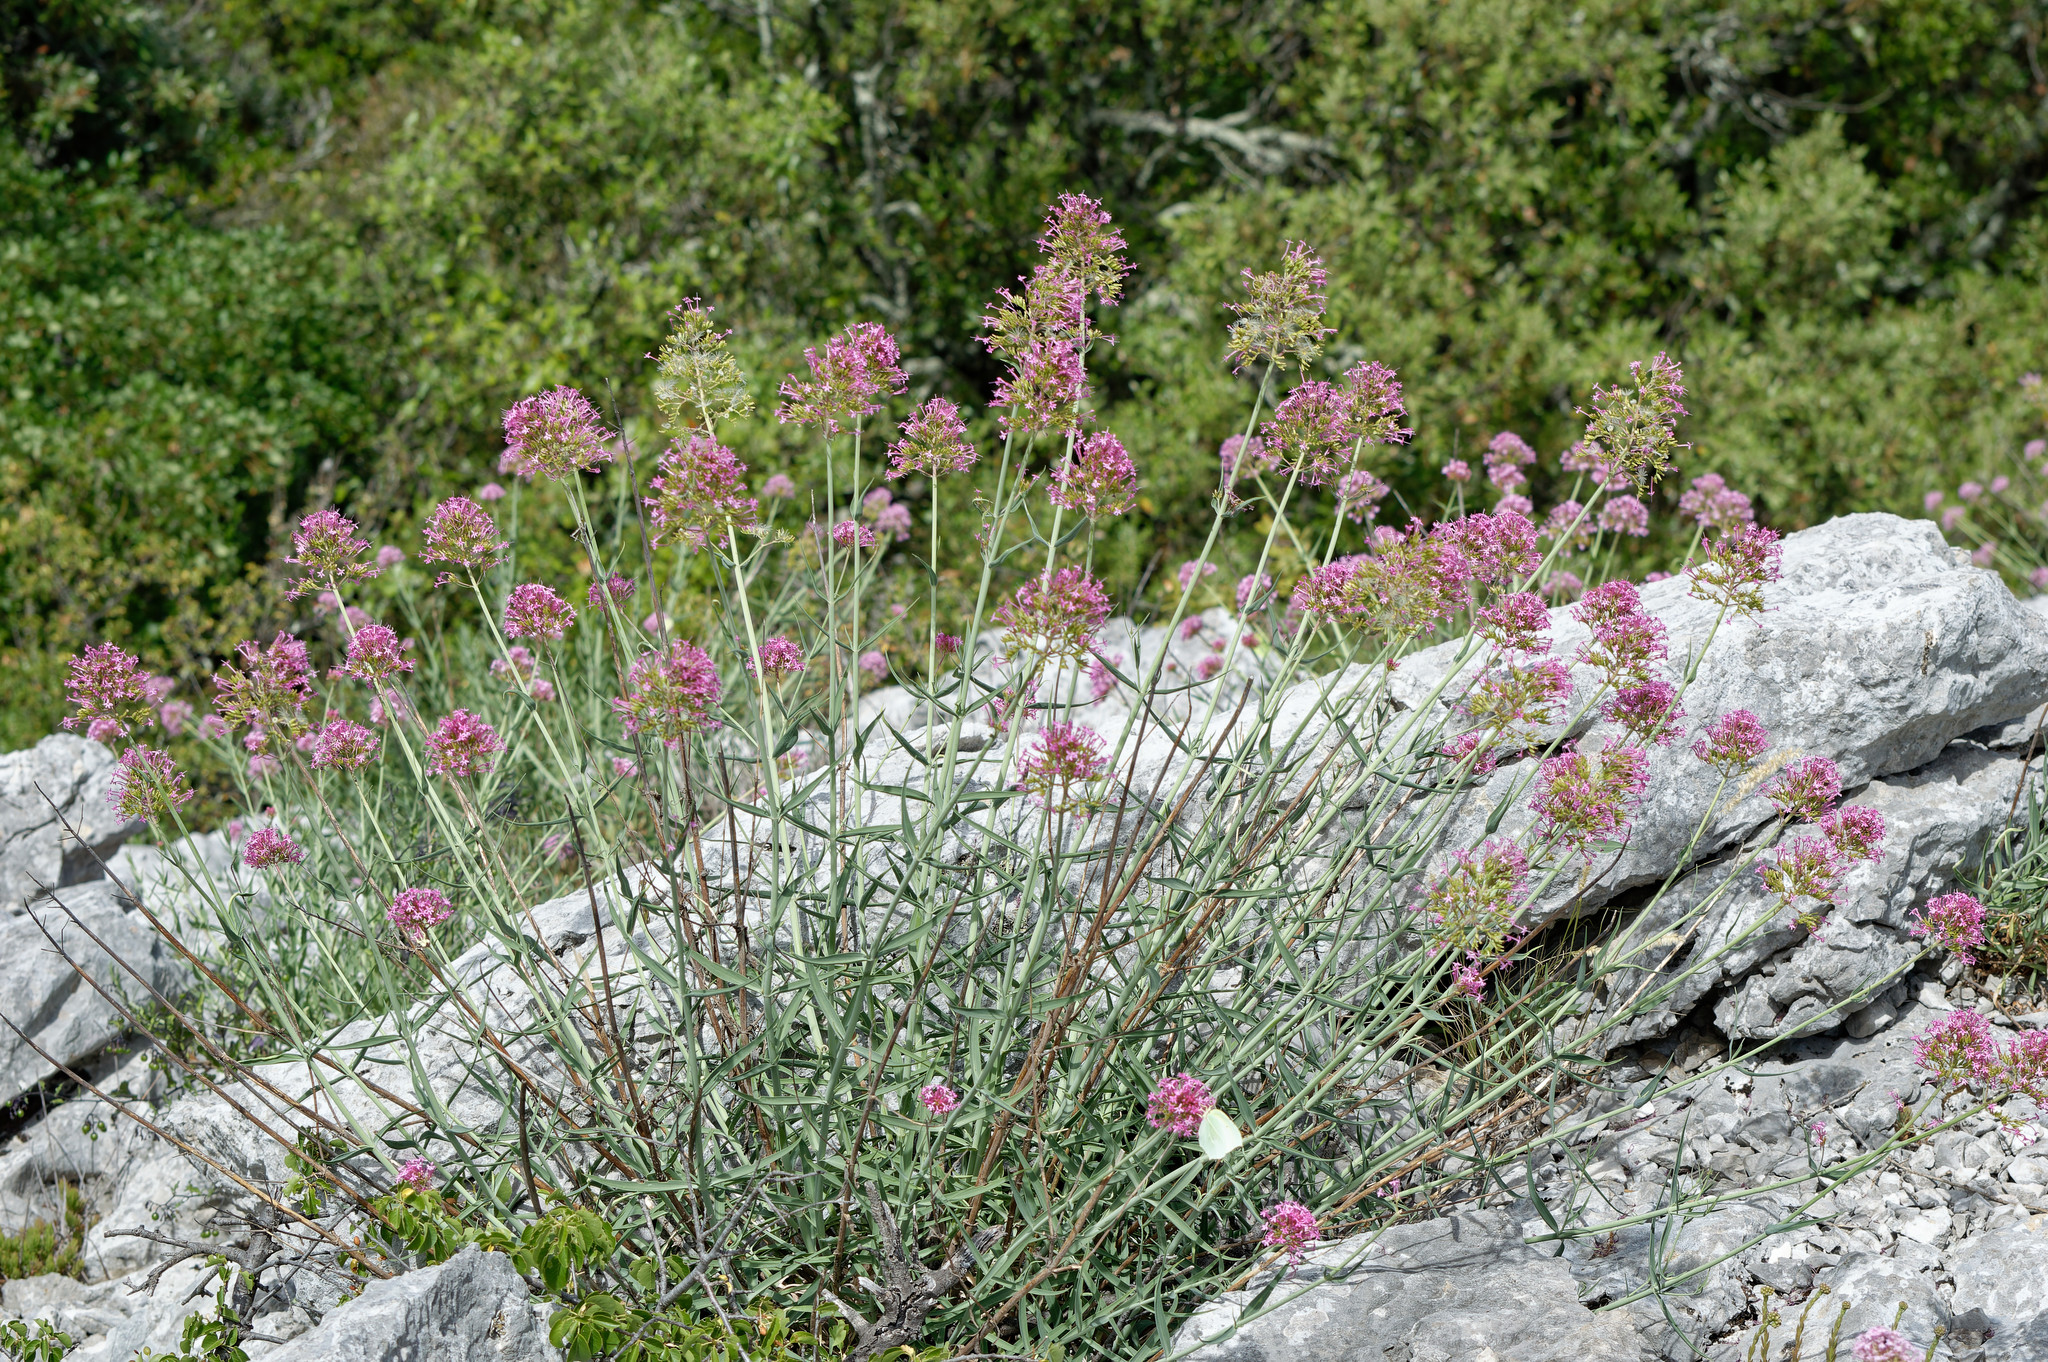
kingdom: Plantae
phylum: Tracheophyta
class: Magnoliopsida
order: Dipsacales
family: Caprifoliaceae
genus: Centranthus
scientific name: Centranthus lecoqii
